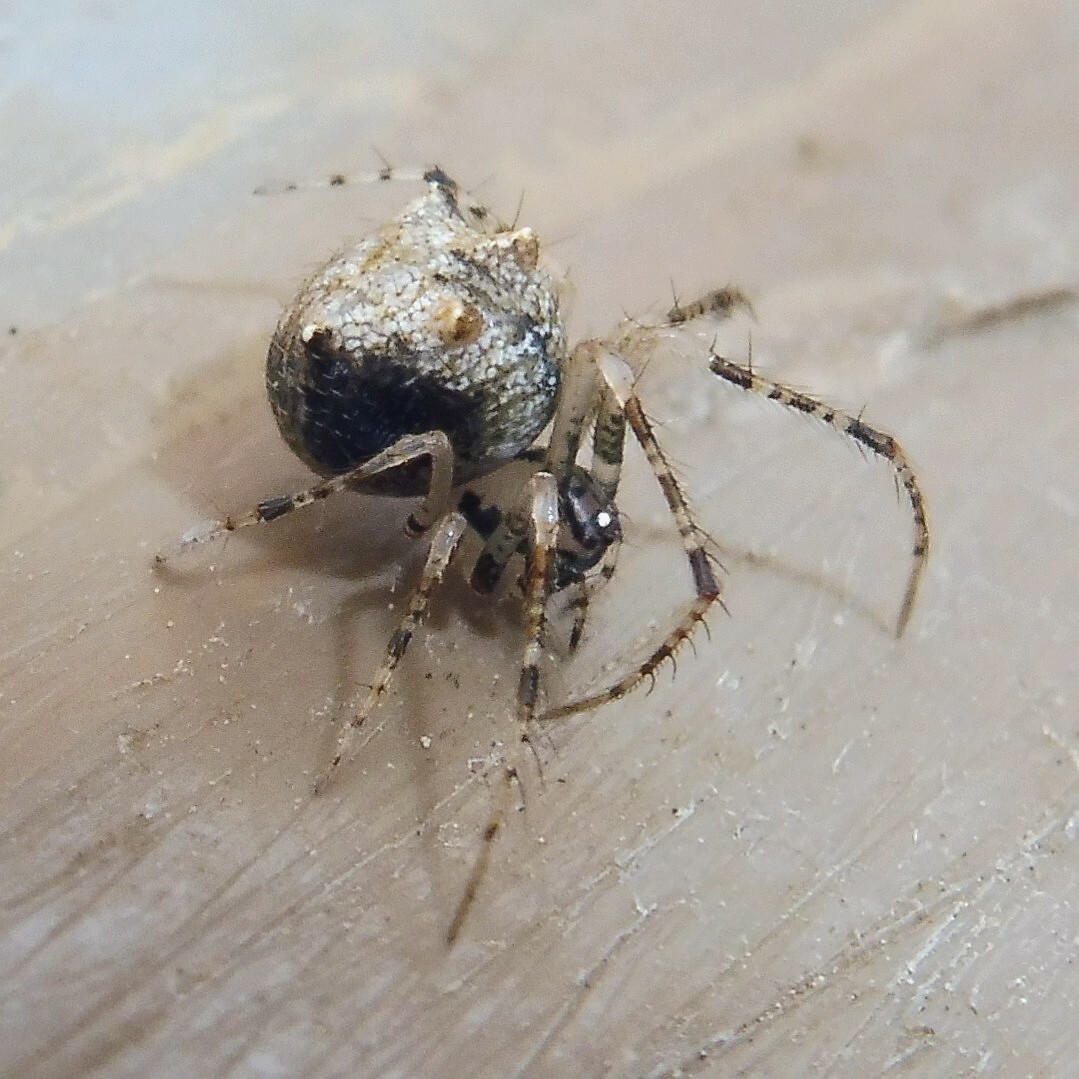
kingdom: Animalia
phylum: Arthropoda
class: Arachnida
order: Araneae
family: Mimetidae
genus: Ero
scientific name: Ero aphana
